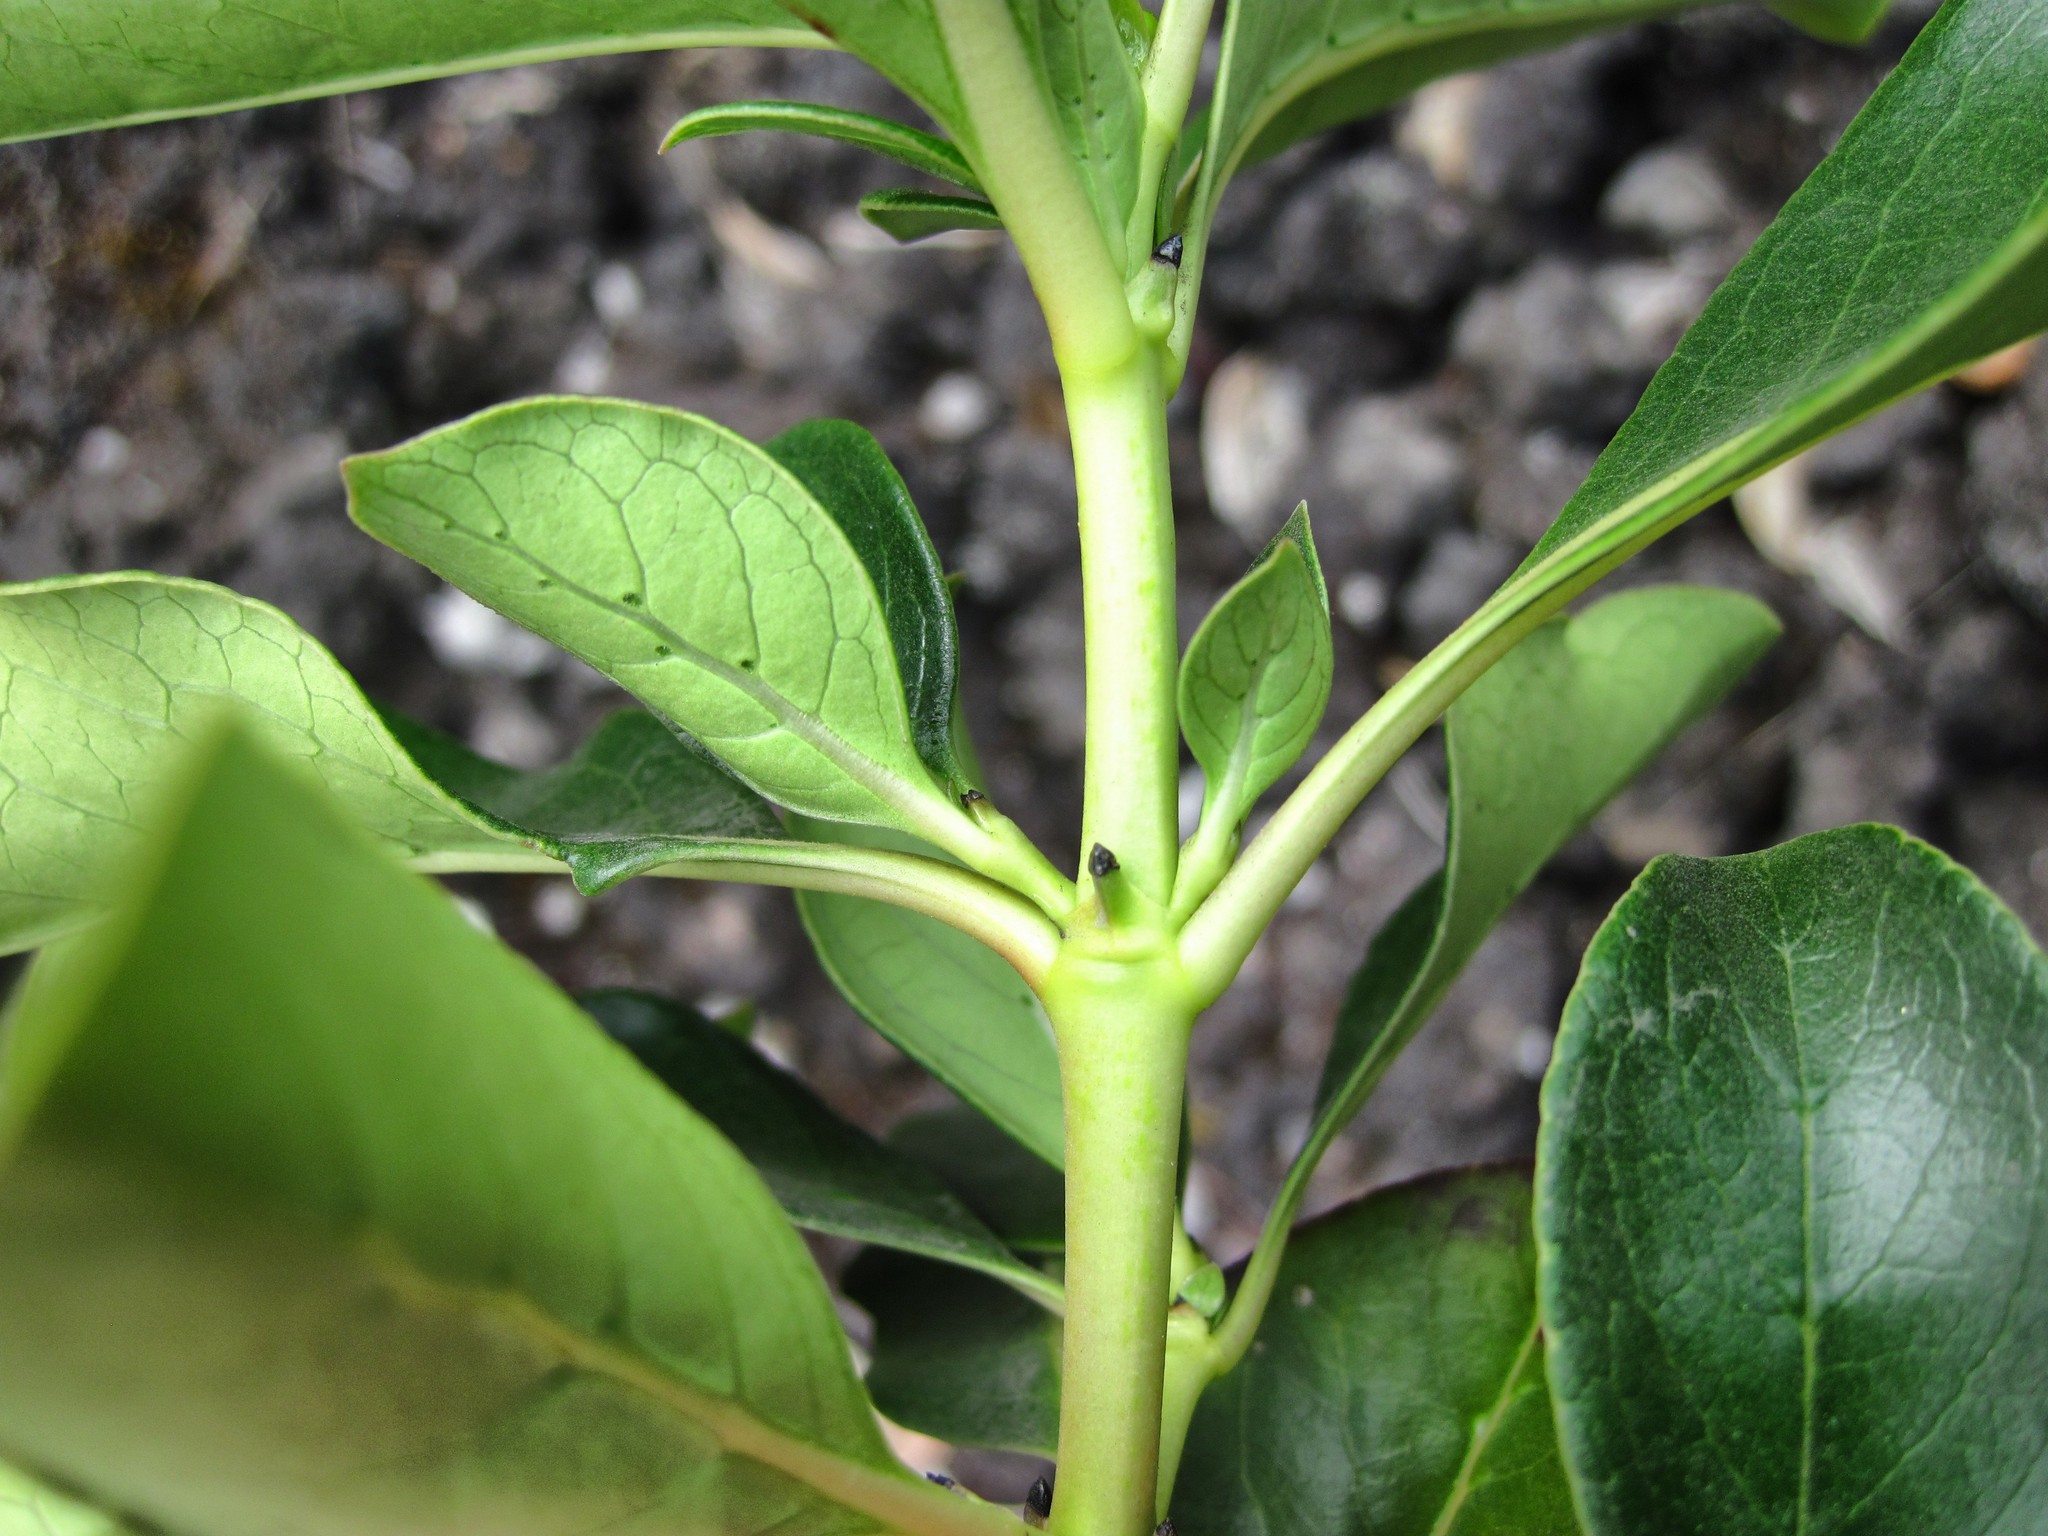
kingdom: Plantae
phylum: Tracheophyta
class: Magnoliopsida
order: Gentianales
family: Rubiaceae
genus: Coprosma
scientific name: Coprosma robusta
